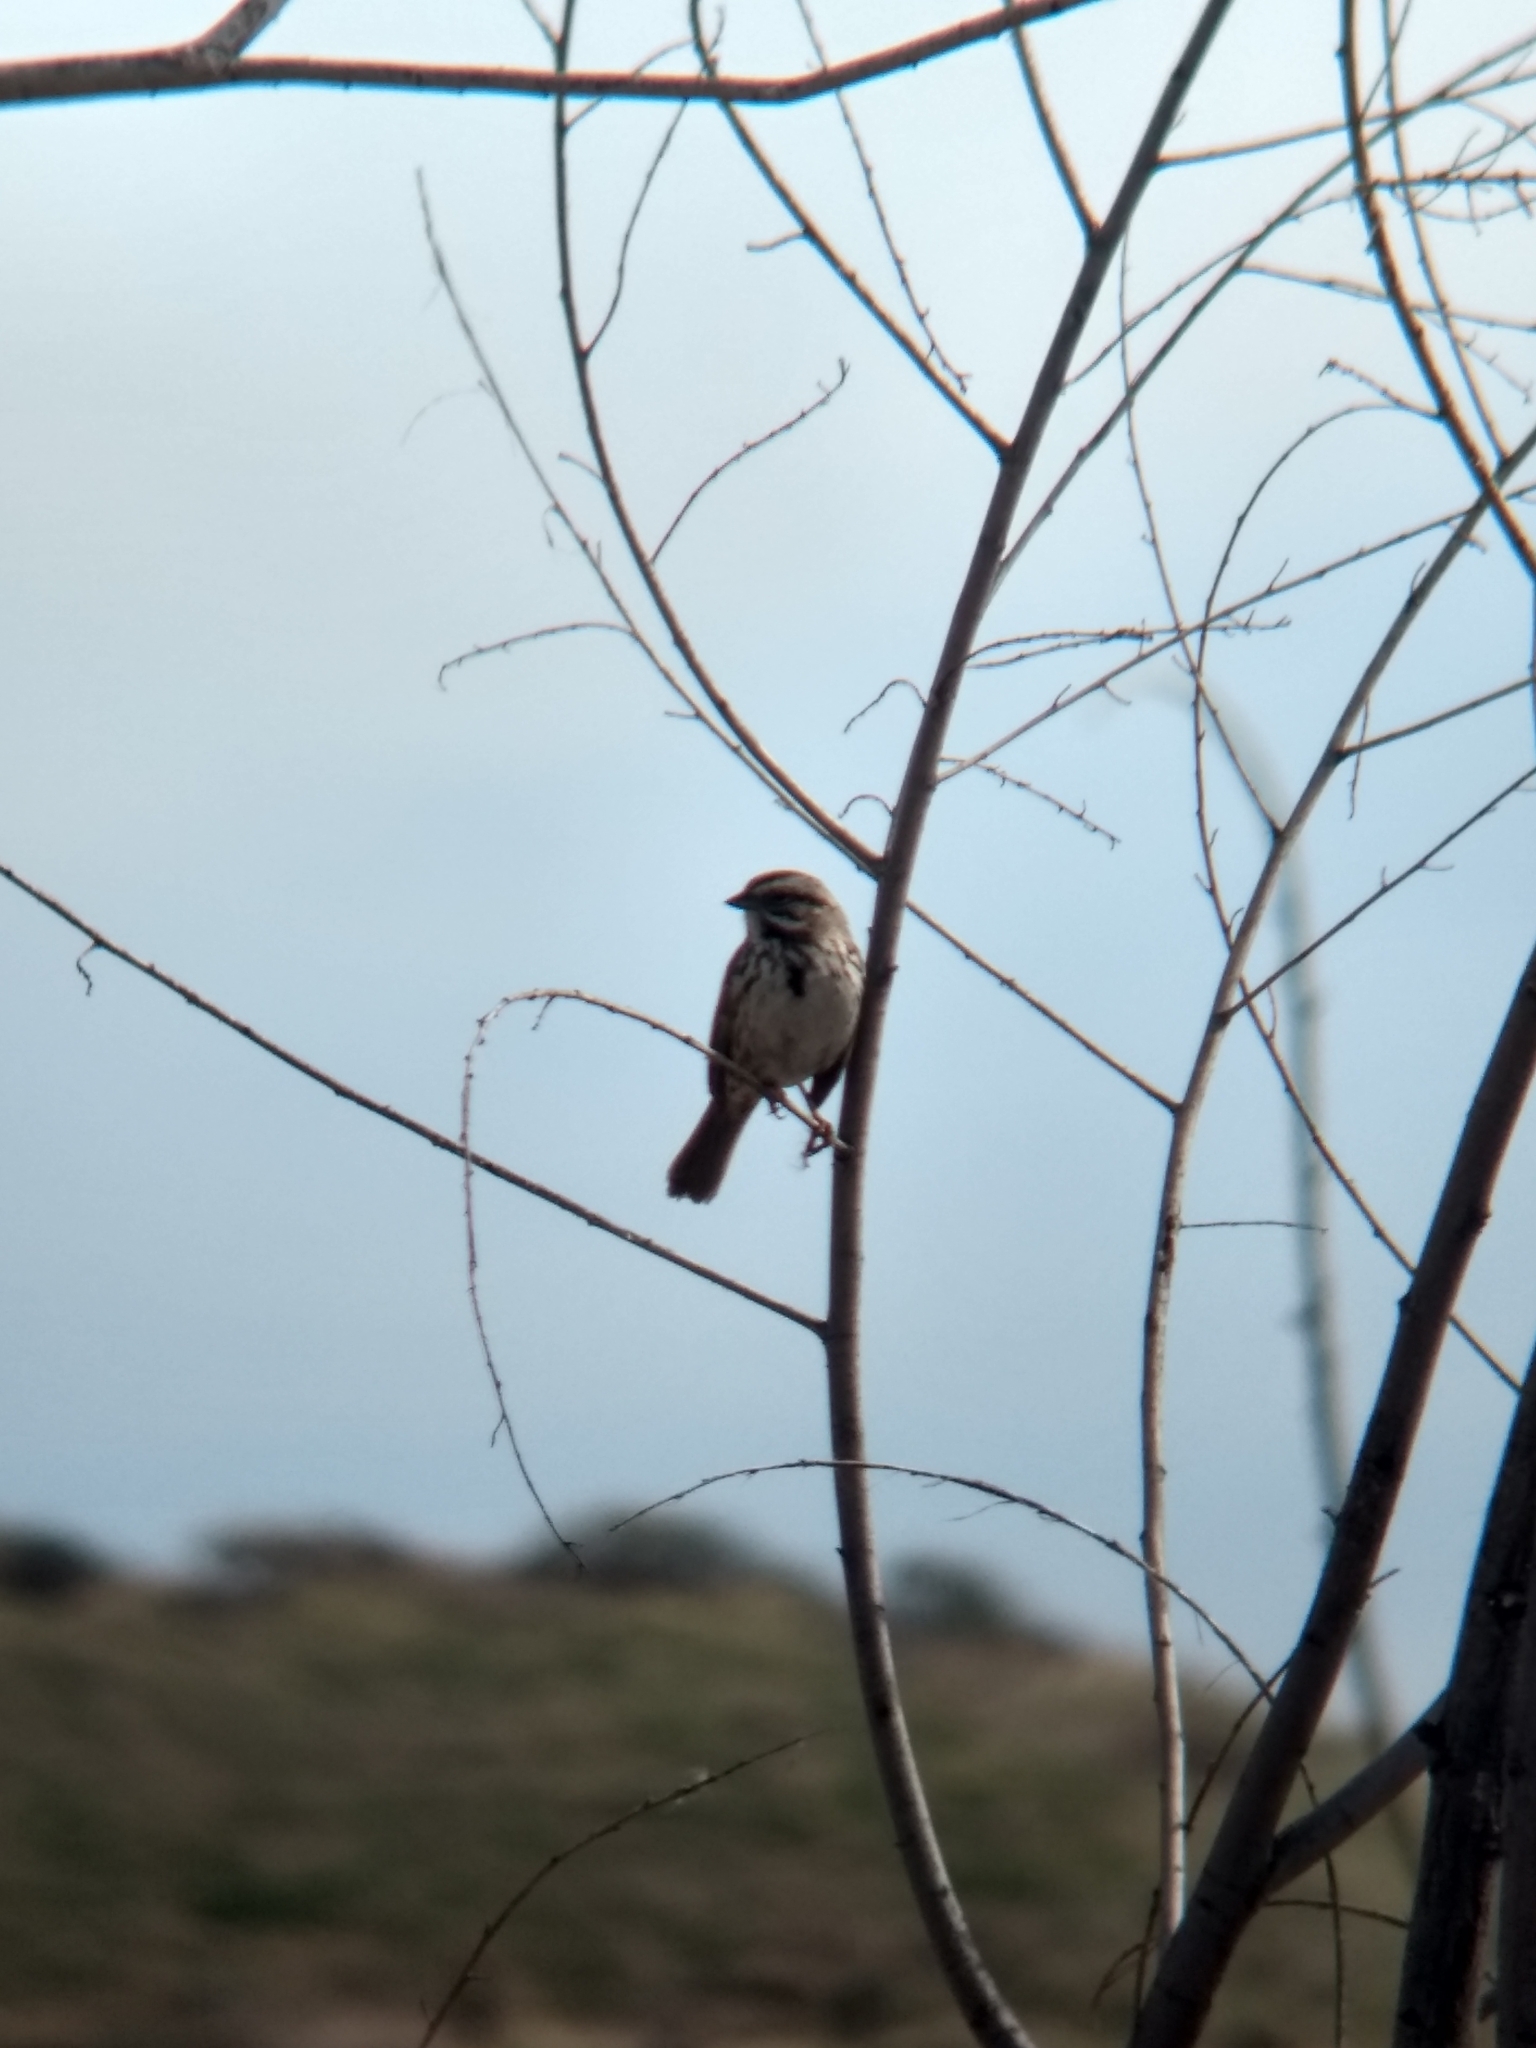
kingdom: Animalia
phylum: Chordata
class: Aves
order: Passeriformes
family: Passerellidae
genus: Melospiza
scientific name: Melospiza melodia
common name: Song sparrow
